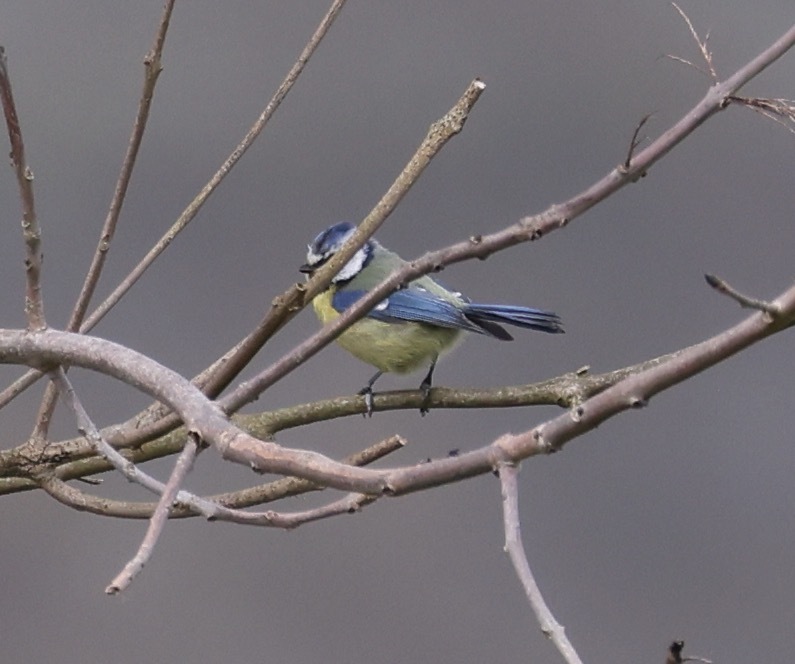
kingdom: Animalia
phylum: Chordata
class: Aves
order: Passeriformes
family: Paridae
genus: Cyanistes
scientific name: Cyanistes caeruleus
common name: Eurasian blue tit
